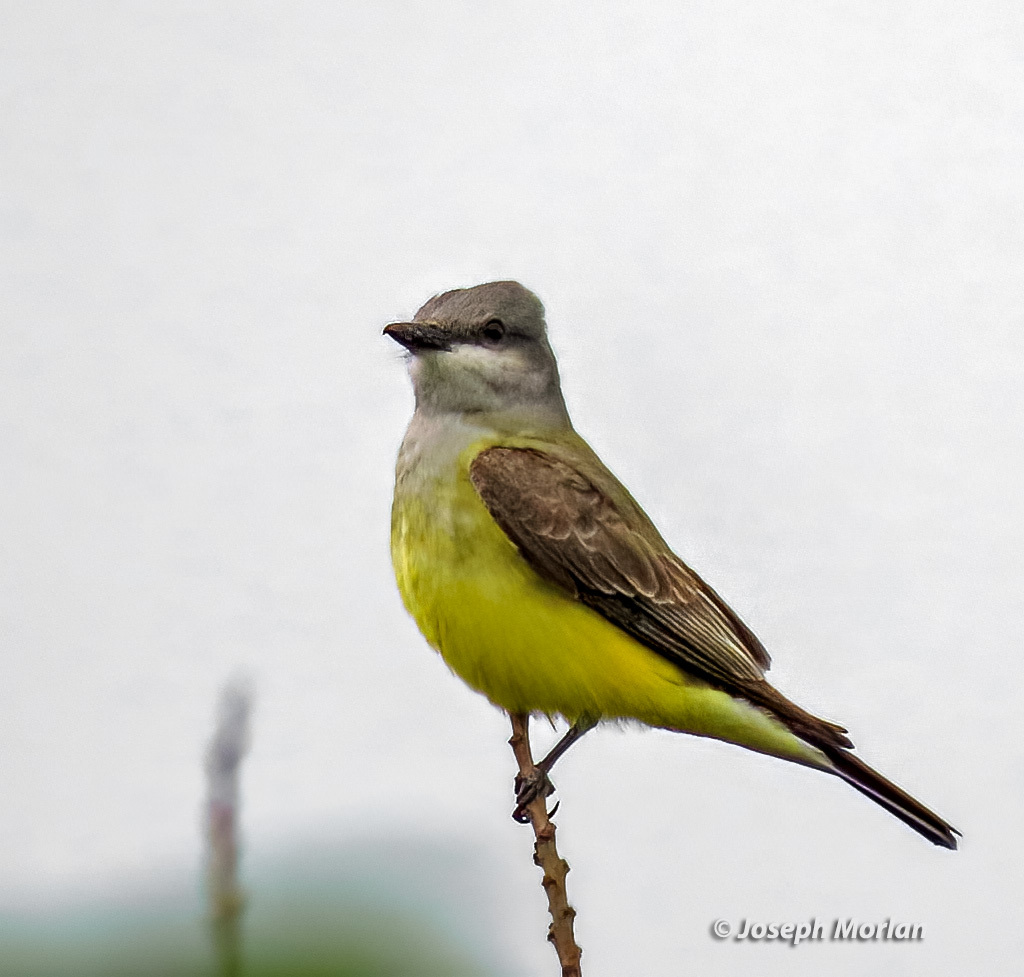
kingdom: Animalia
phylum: Chordata
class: Aves
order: Passeriformes
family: Tyrannidae
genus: Tyrannus
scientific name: Tyrannus verticalis
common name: Western kingbird
